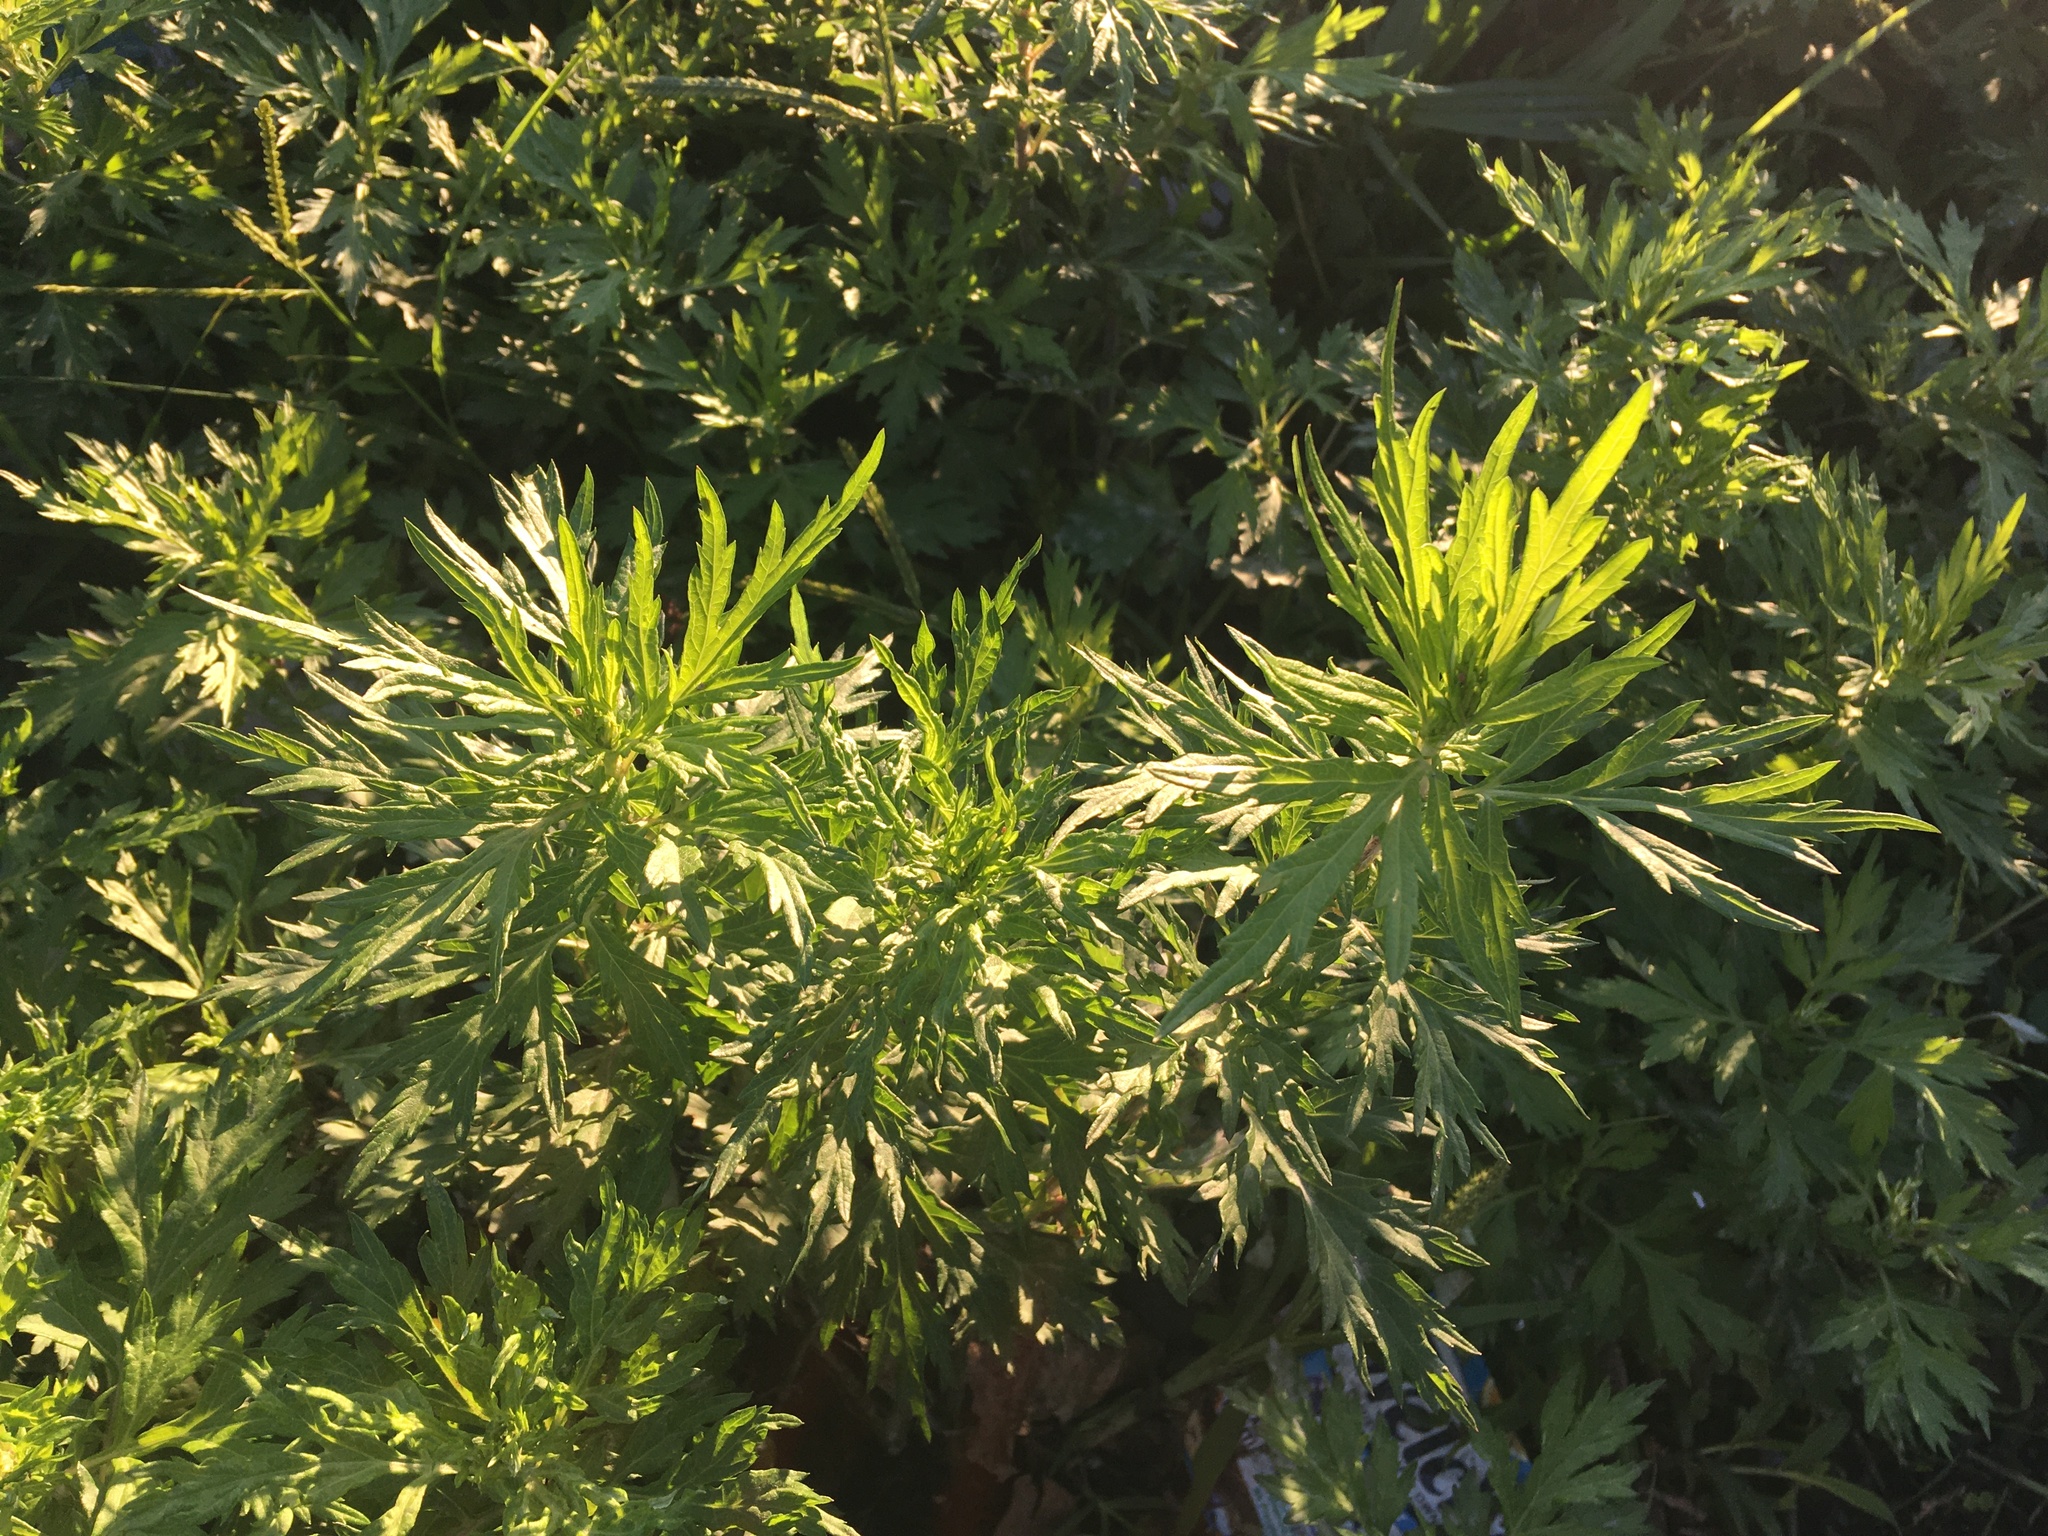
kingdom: Plantae
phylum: Tracheophyta
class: Magnoliopsida
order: Asterales
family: Asteraceae
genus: Artemisia
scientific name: Artemisia vulgaris
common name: Mugwort
